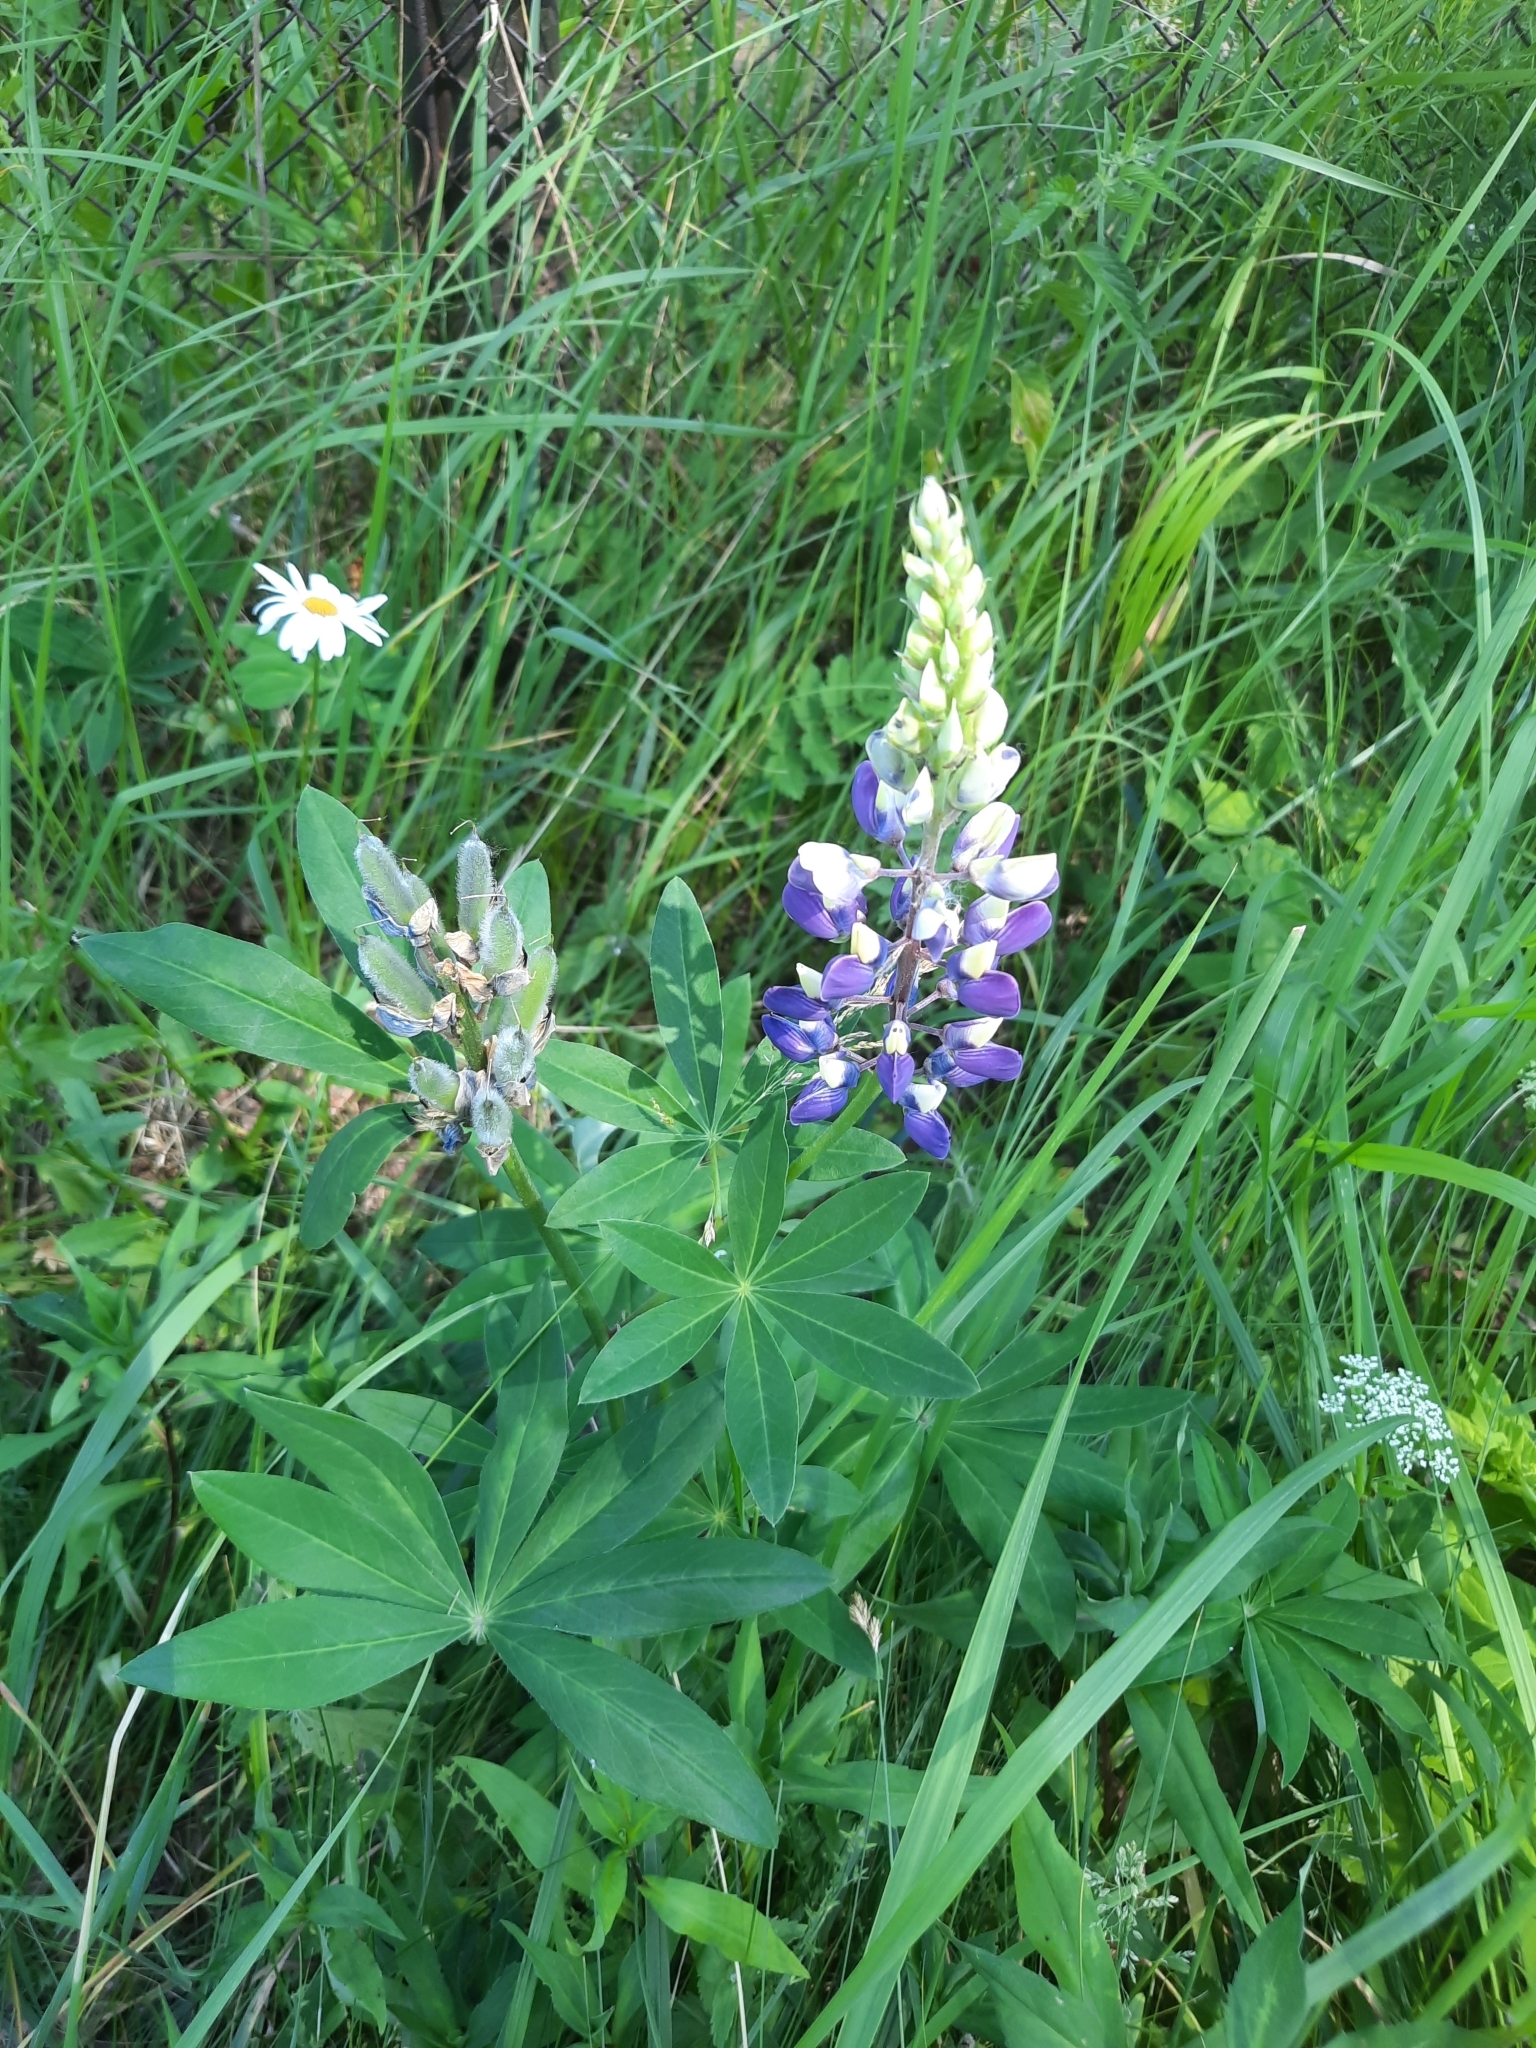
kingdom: Plantae
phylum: Tracheophyta
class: Magnoliopsida
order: Fabales
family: Fabaceae
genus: Lupinus
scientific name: Lupinus polyphyllus
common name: Garden lupin
